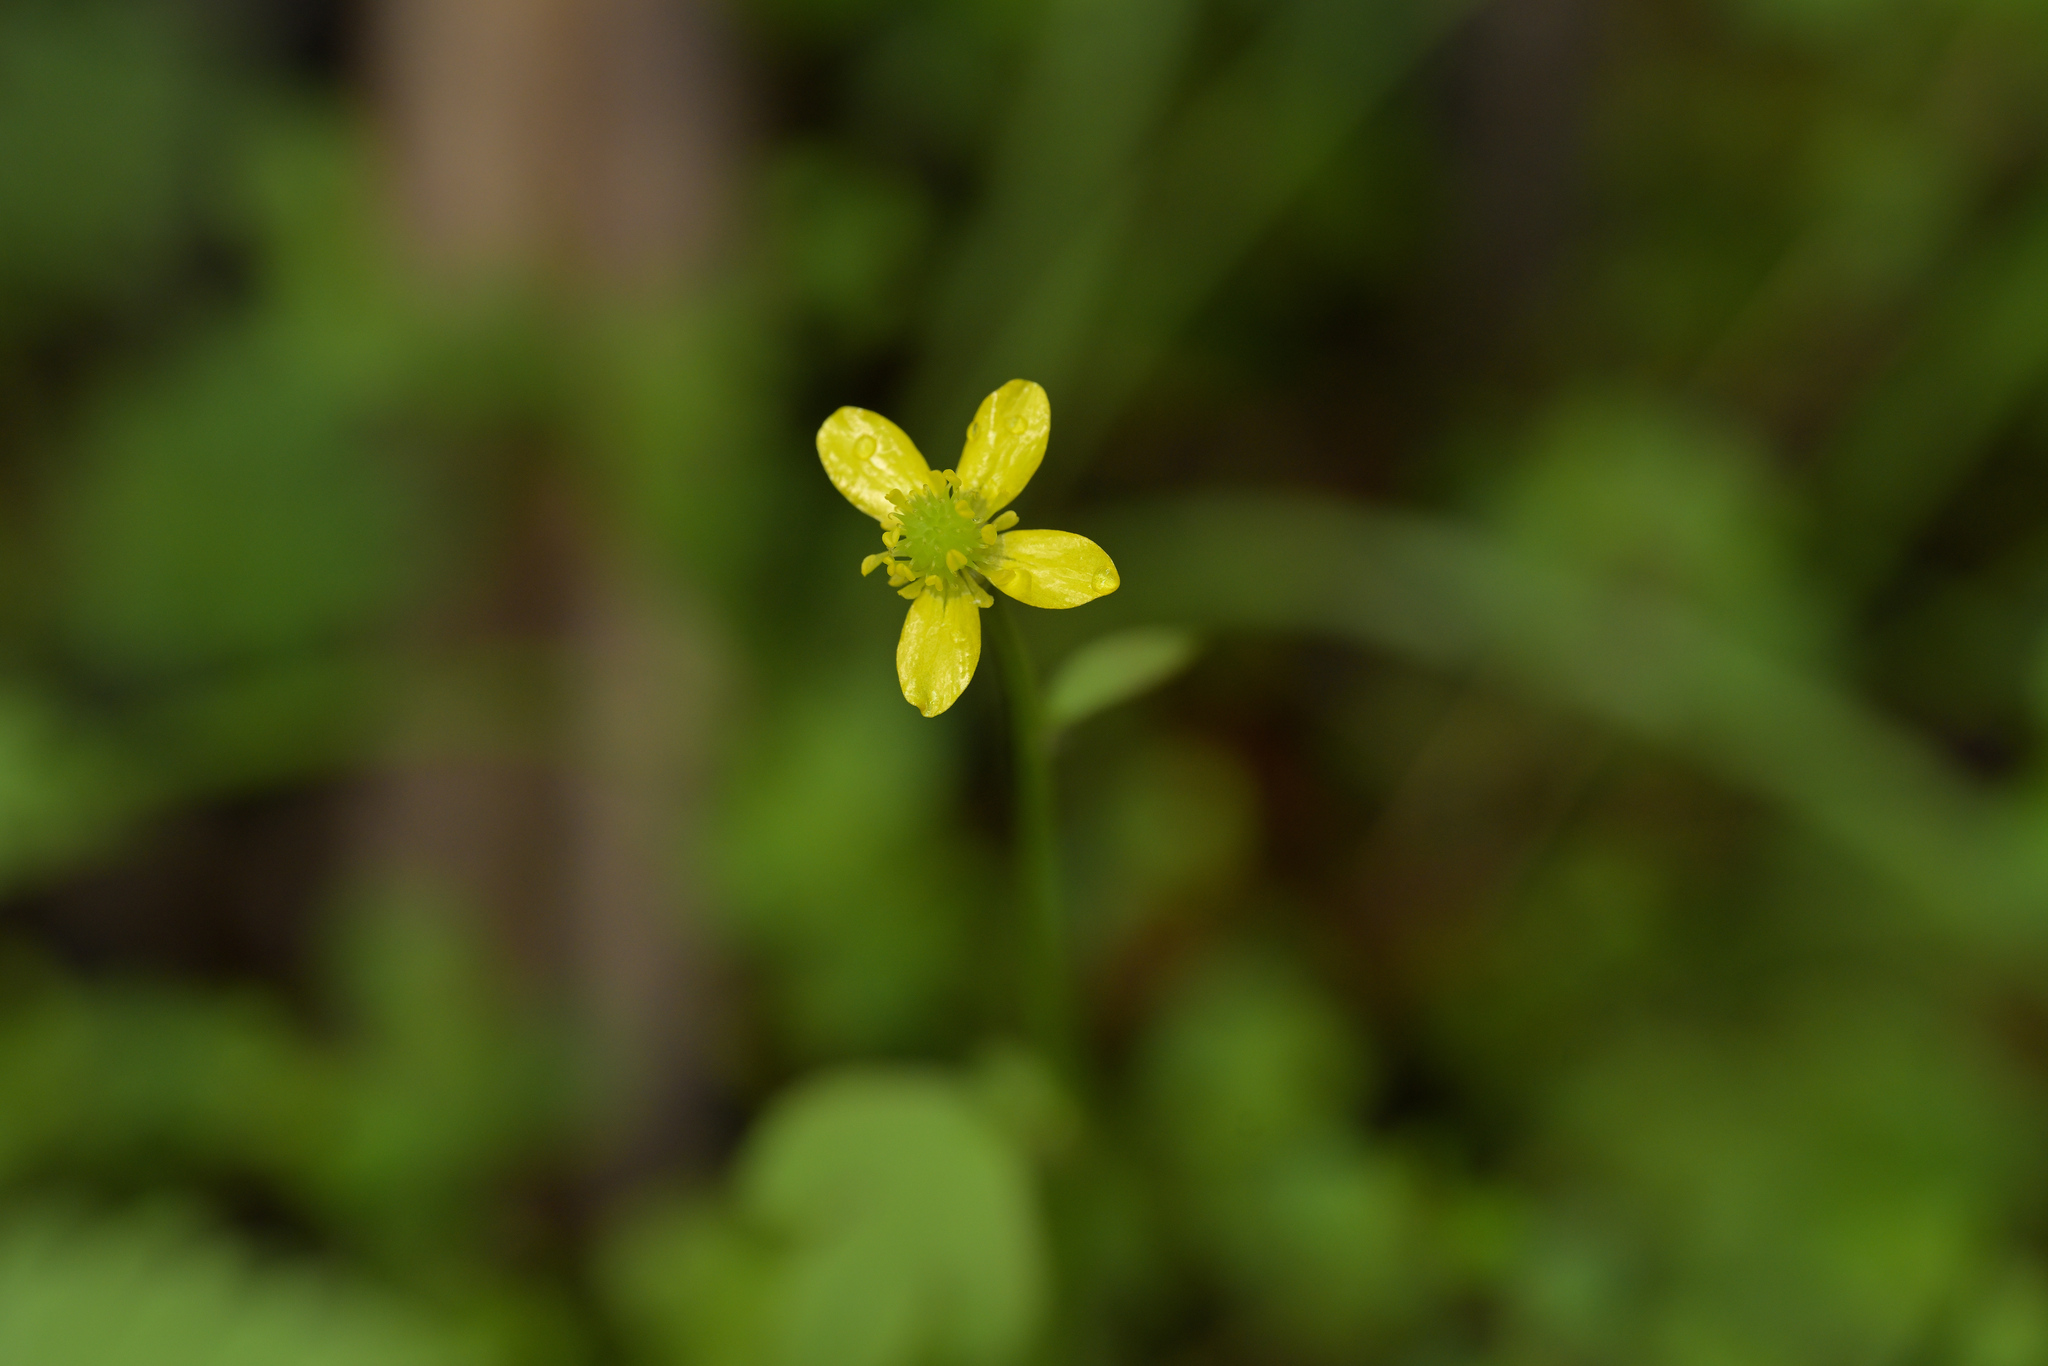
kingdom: Plantae
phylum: Tracheophyta
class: Magnoliopsida
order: Ranunculales
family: Ranunculaceae
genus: Ranunculus
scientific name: Ranunculus reflexus
